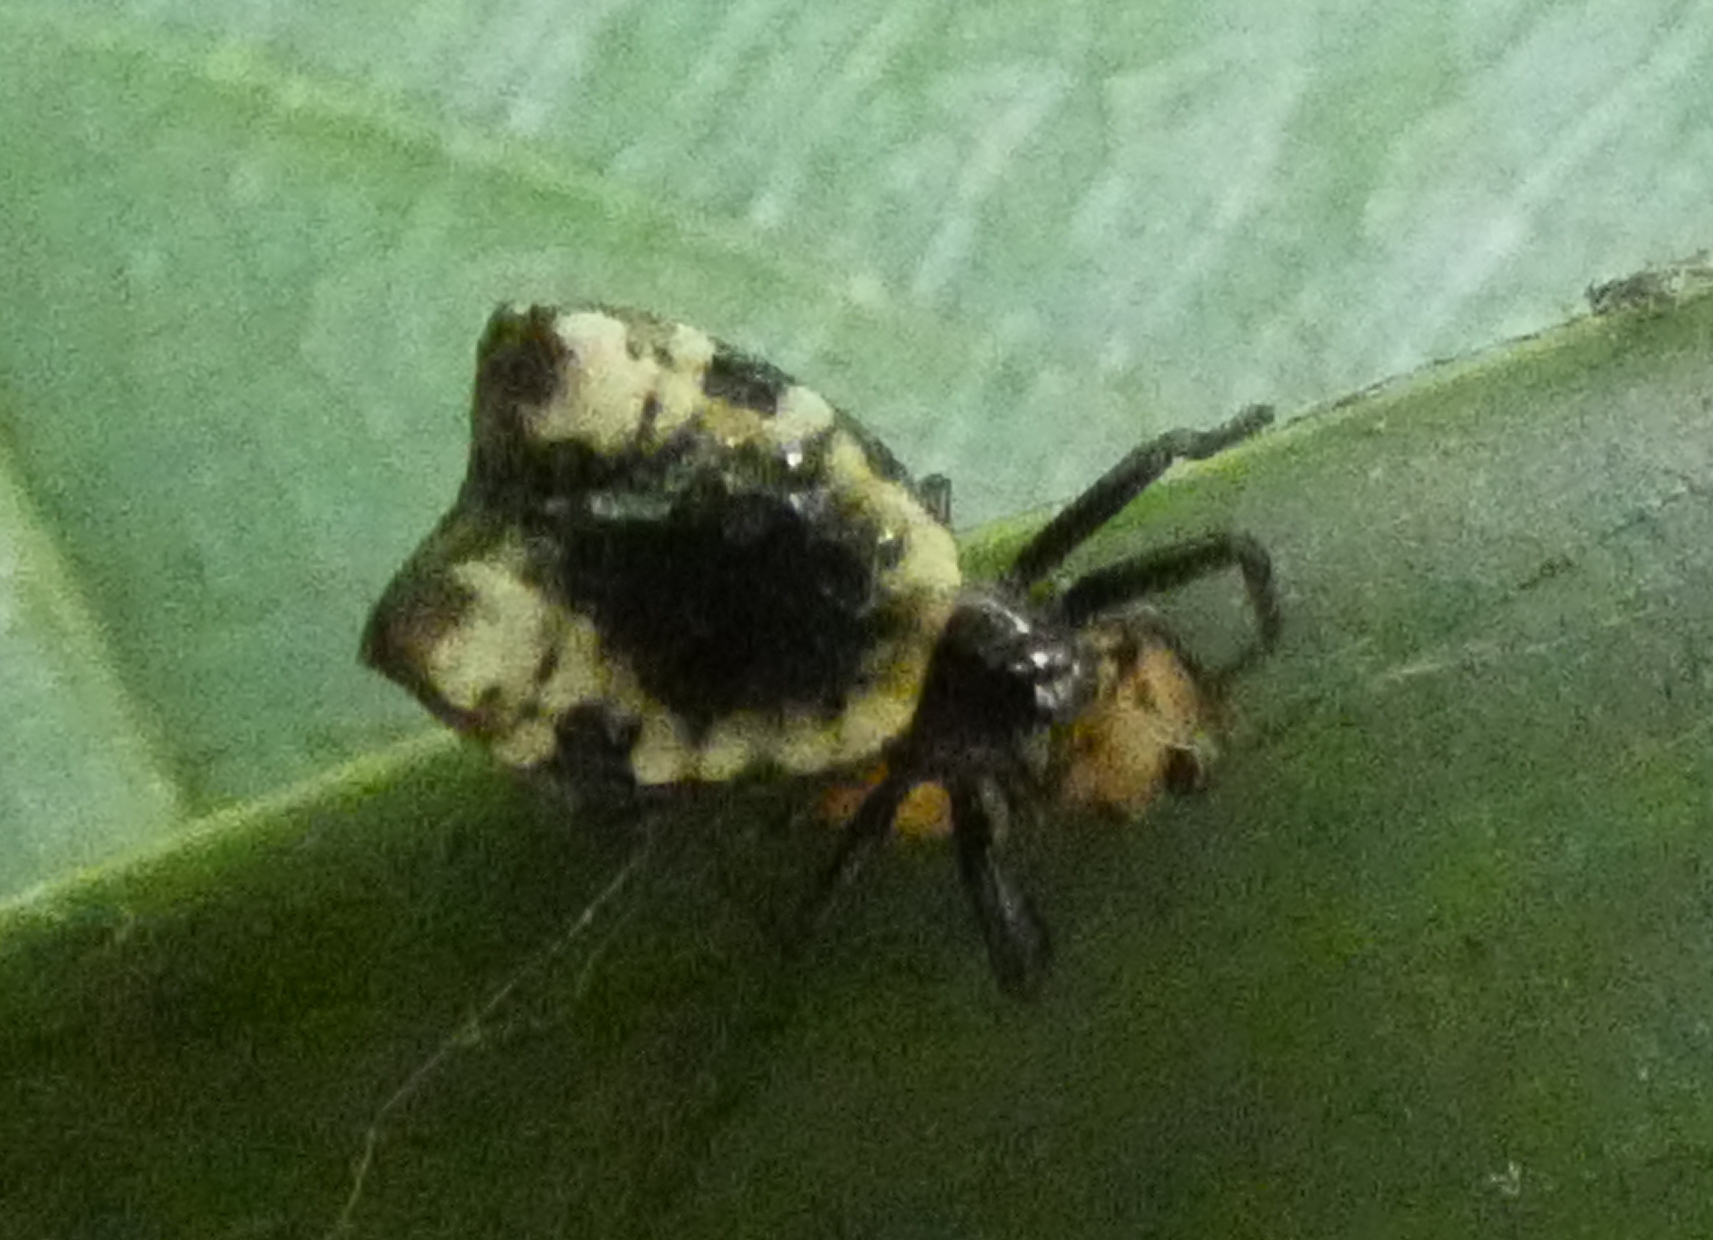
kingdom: Animalia
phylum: Arthropoda
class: Arachnida
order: Araneae
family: Araneidae
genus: Micrathena
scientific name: Micrathena patruelis
